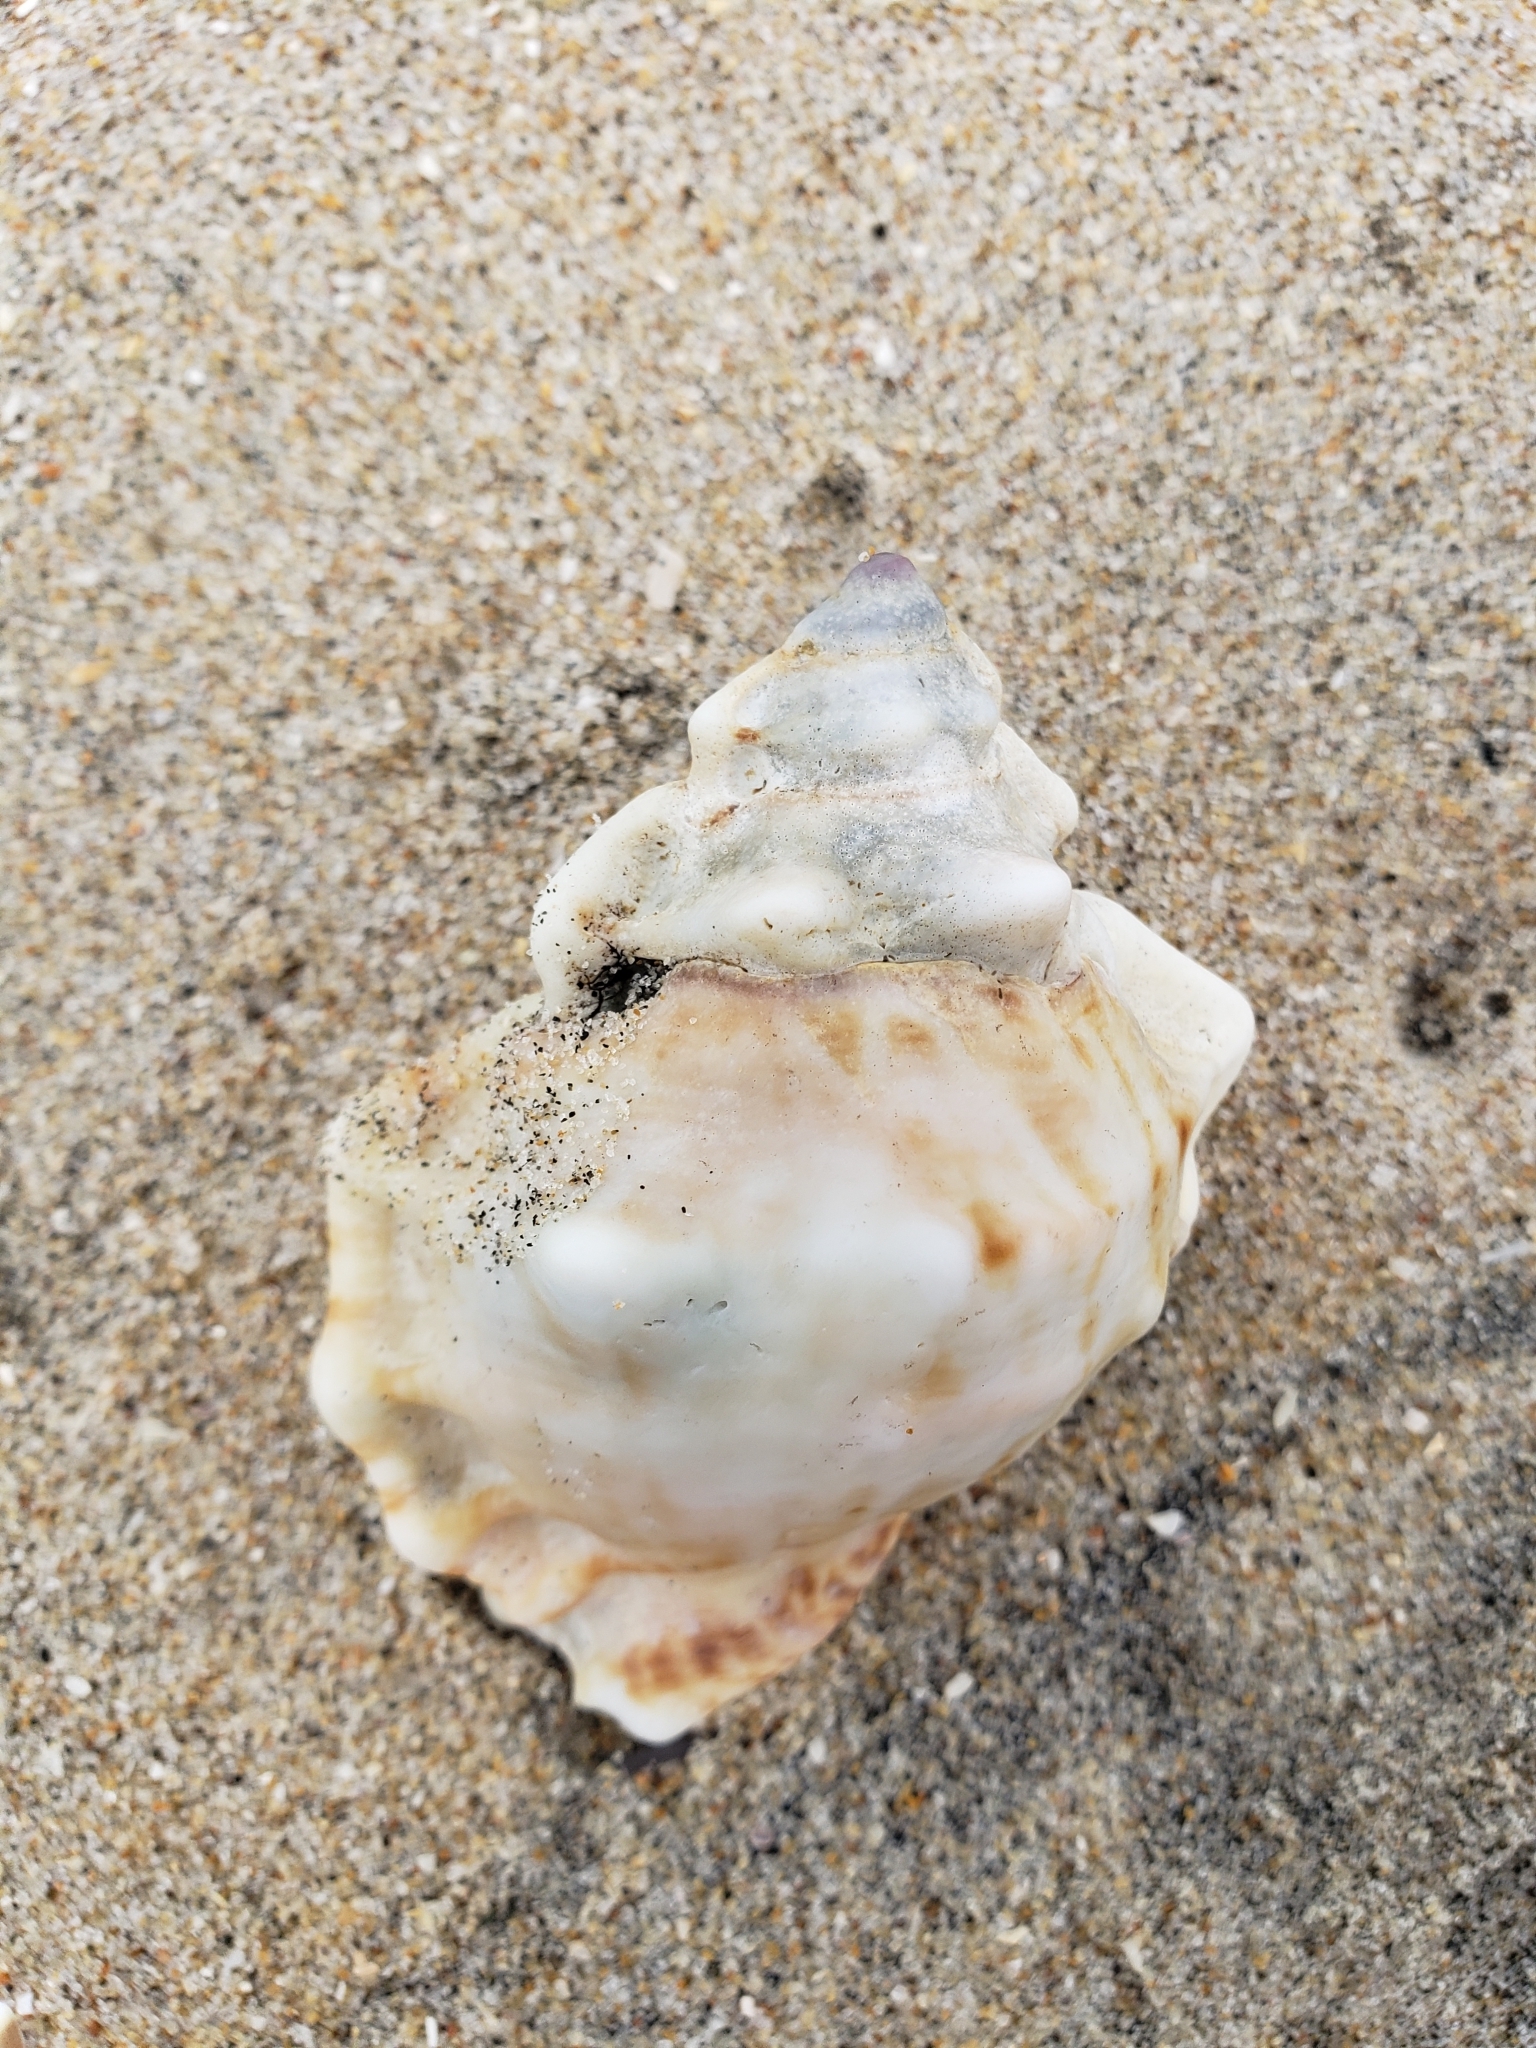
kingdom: Animalia
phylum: Mollusca
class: Gastropoda
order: Littorinimorpha
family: Bursidae
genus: Crossata
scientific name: Crossata californica
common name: California frogsnail
